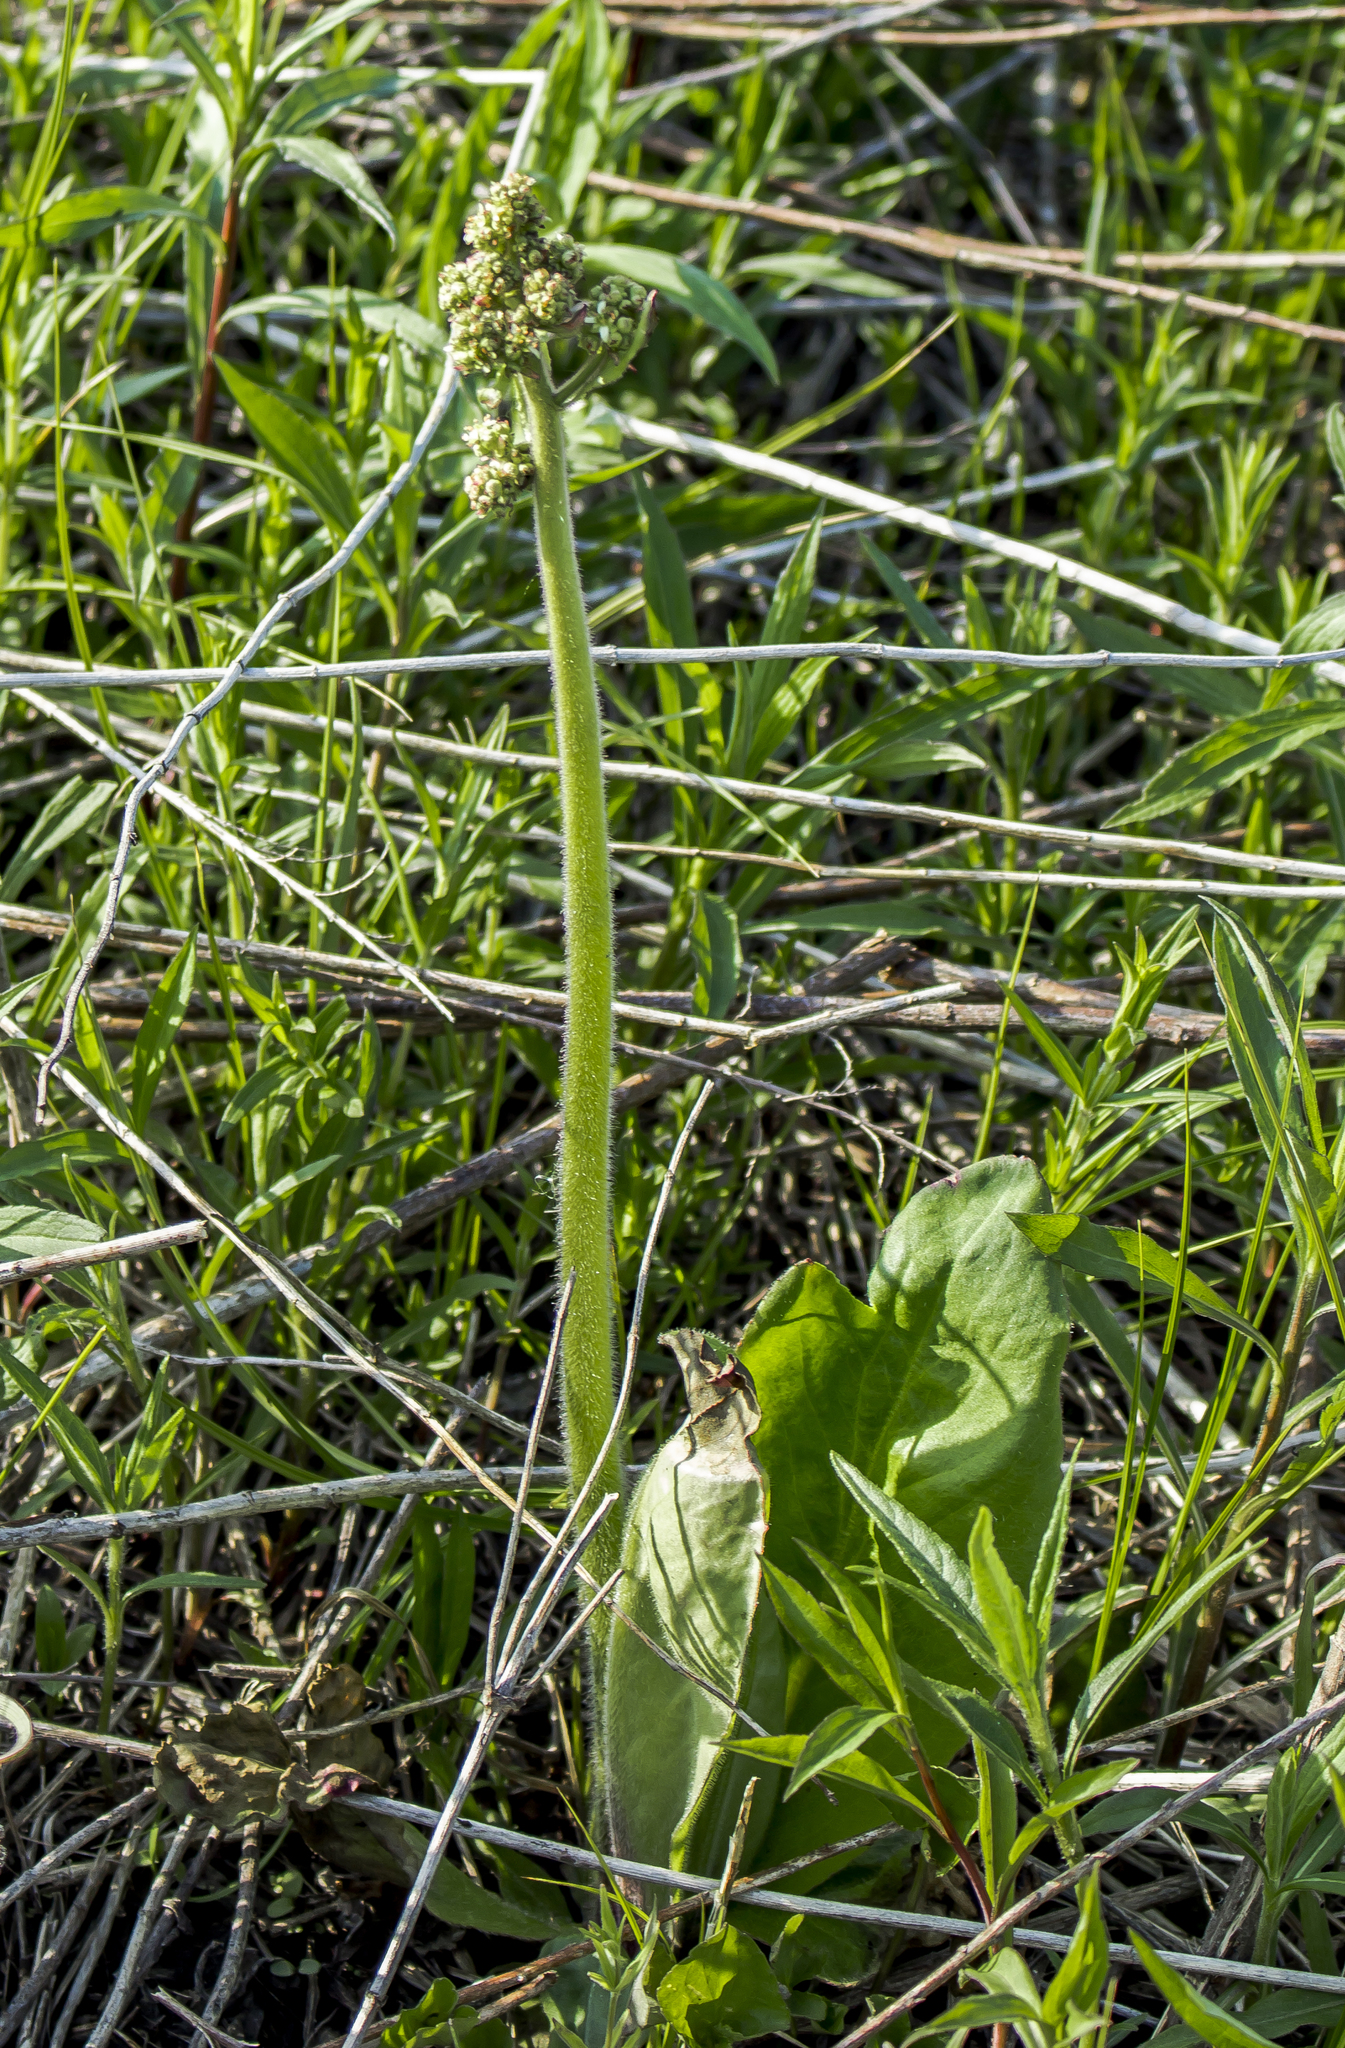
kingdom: Plantae
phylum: Tracheophyta
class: Magnoliopsida
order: Saxifragales
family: Saxifragaceae
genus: Micranthes
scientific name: Micranthes pensylvanica
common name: Marsh saxifrage
